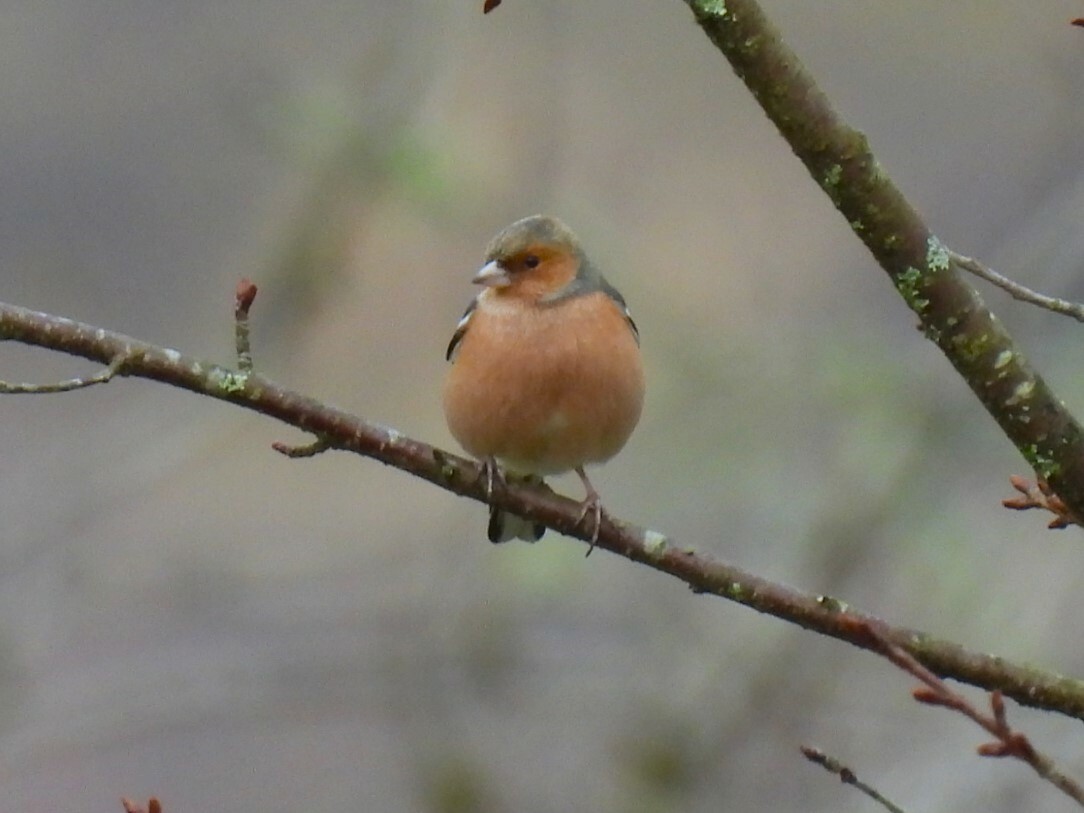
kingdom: Animalia
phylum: Chordata
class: Aves
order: Passeriformes
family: Fringillidae
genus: Fringilla
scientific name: Fringilla coelebs
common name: Common chaffinch
